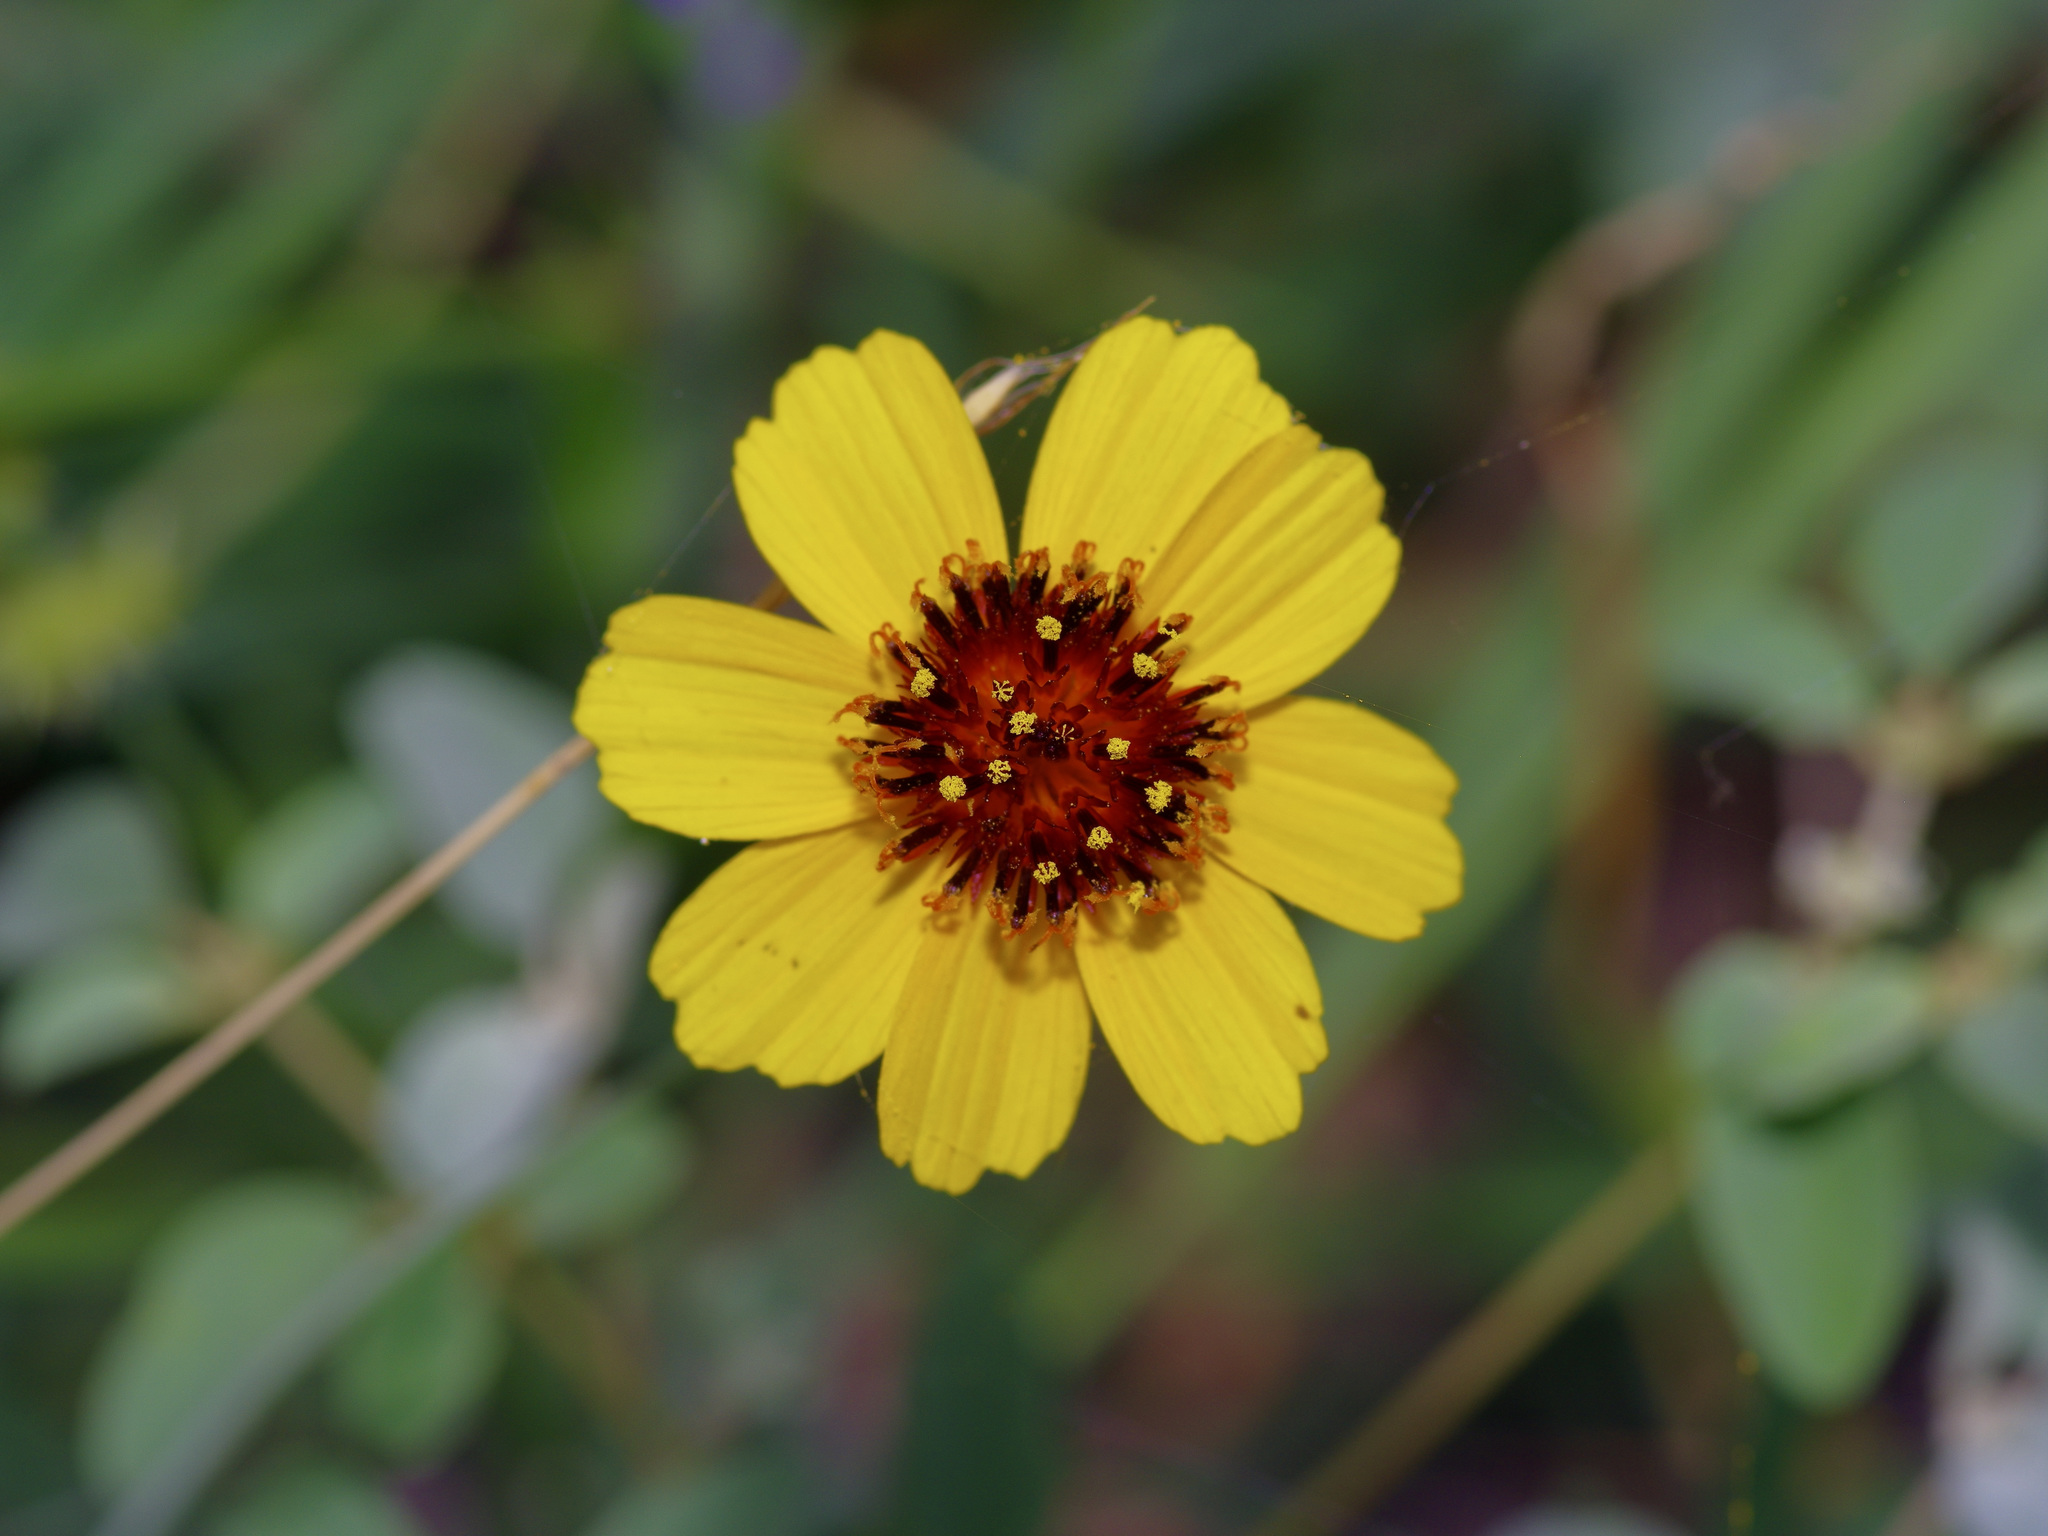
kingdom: Plantae
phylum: Tracheophyta
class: Magnoliopsida
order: Asterales
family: Asteraceae
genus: Thelesperma
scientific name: Thelesperma filifolium
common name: Stiff greenthread
